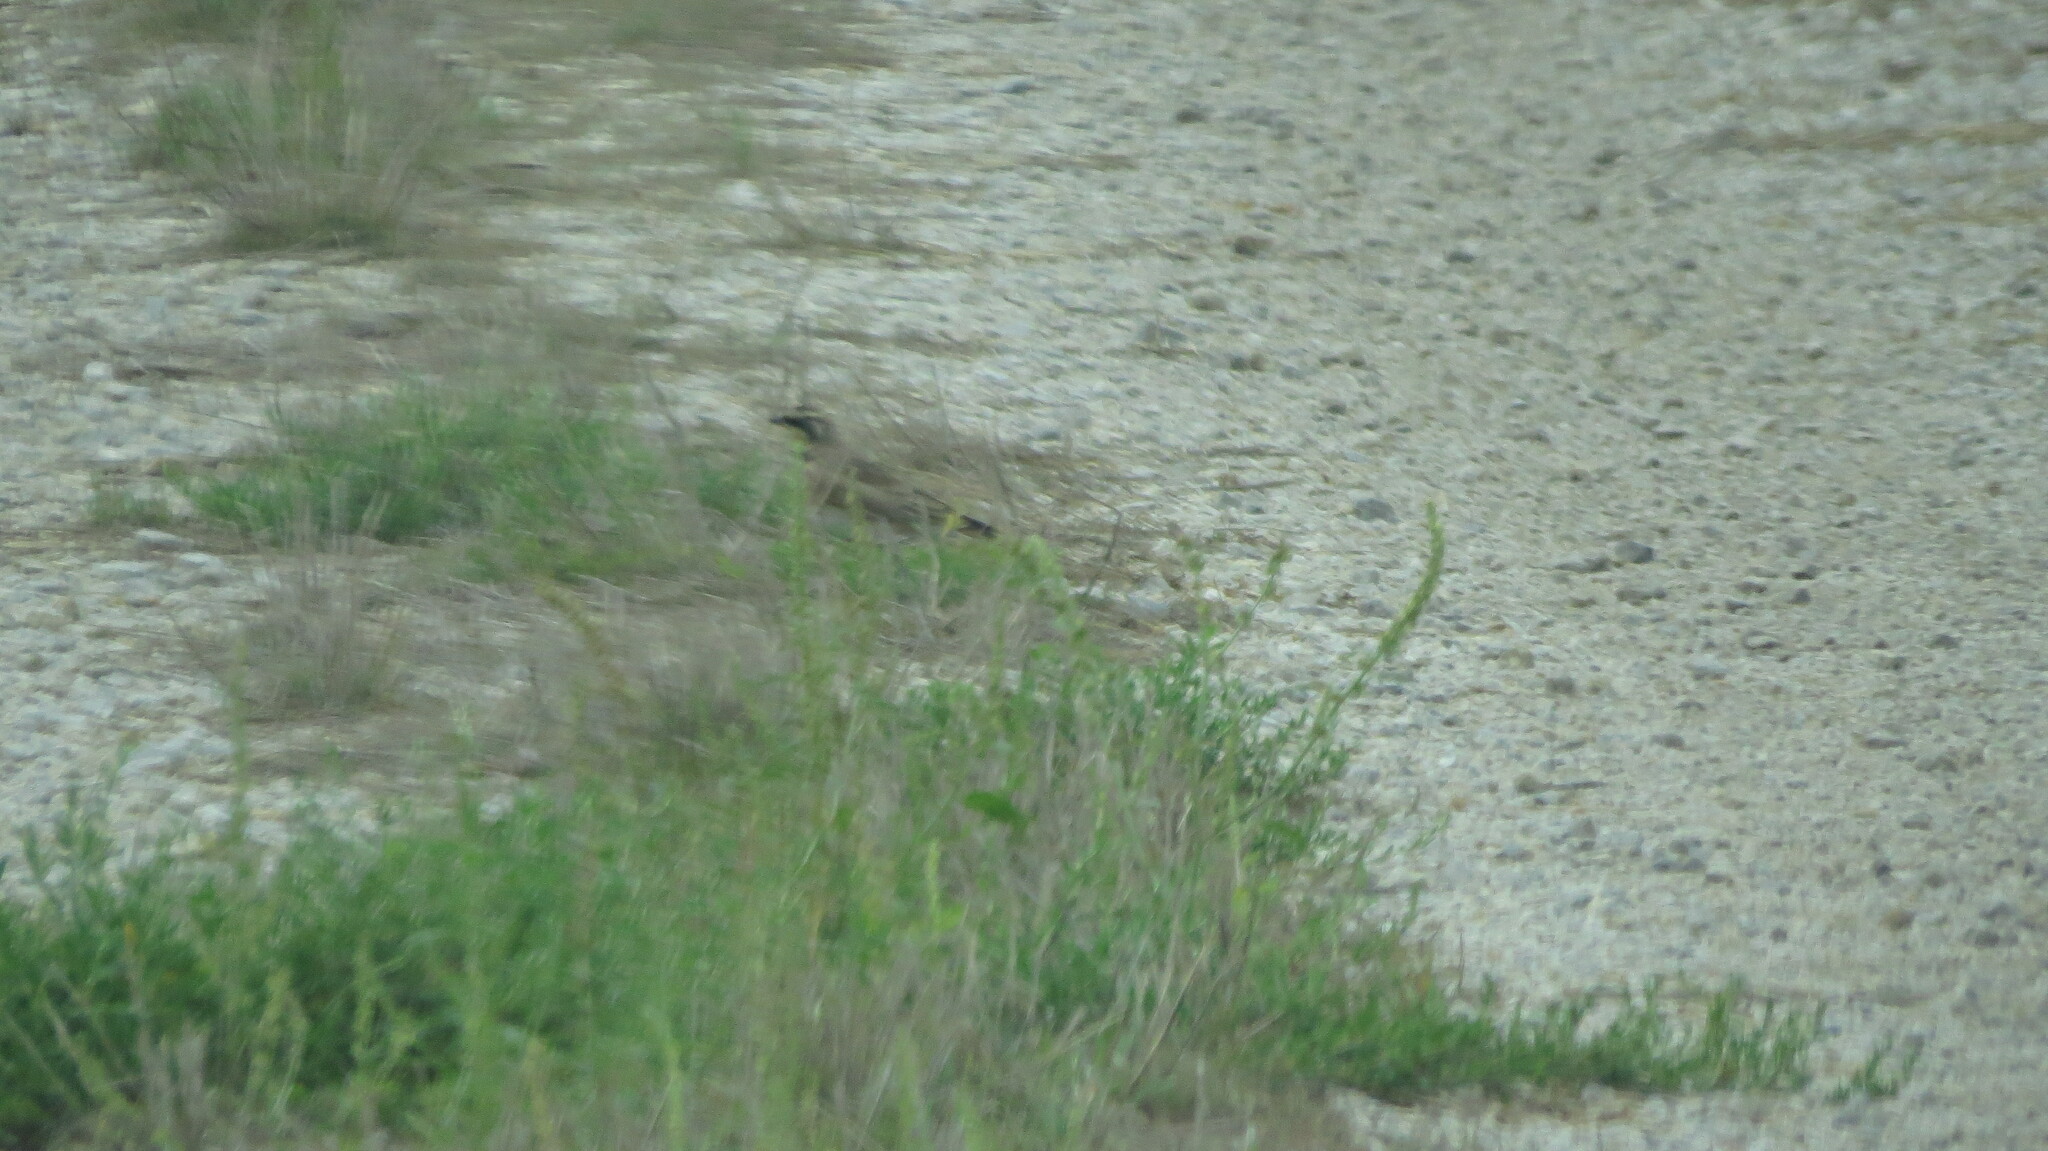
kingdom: Animalia
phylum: Chordata
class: Aves
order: Passeriformes
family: Alaudidae
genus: Eremophila
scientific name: Eremophila alpestris
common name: Horned lark
